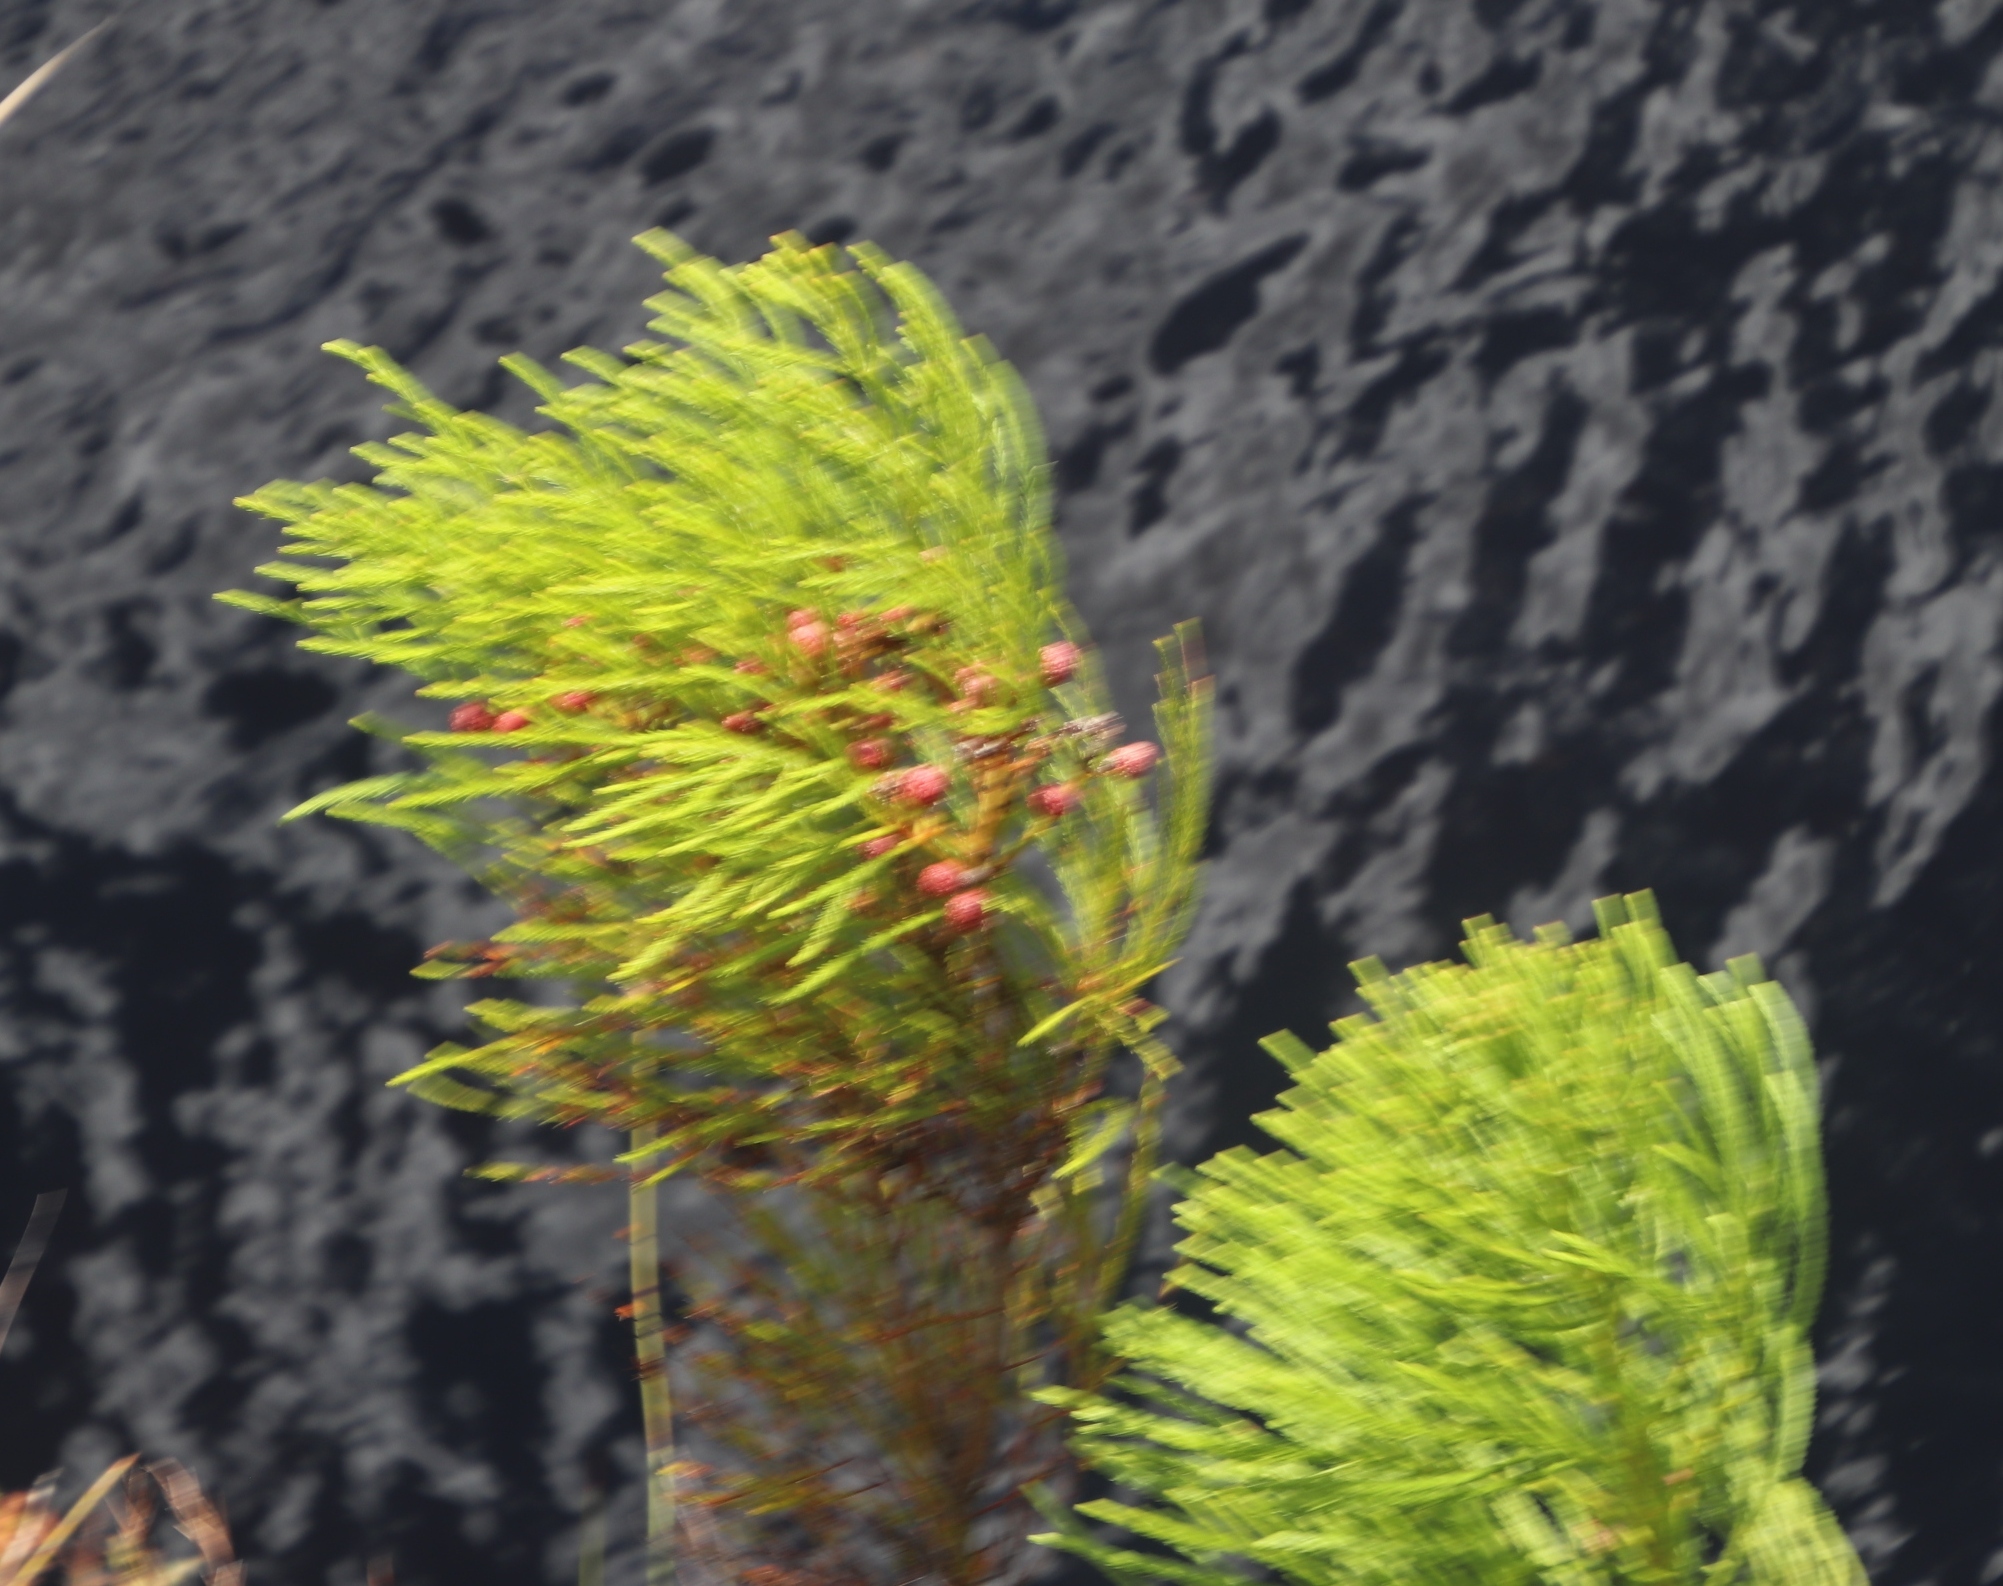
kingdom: Plantae
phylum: Tracheophyta
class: Magnoliopsida
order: Bruniales
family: Bruniaceae
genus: Berzelia
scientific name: Berzelia lanuginosa
